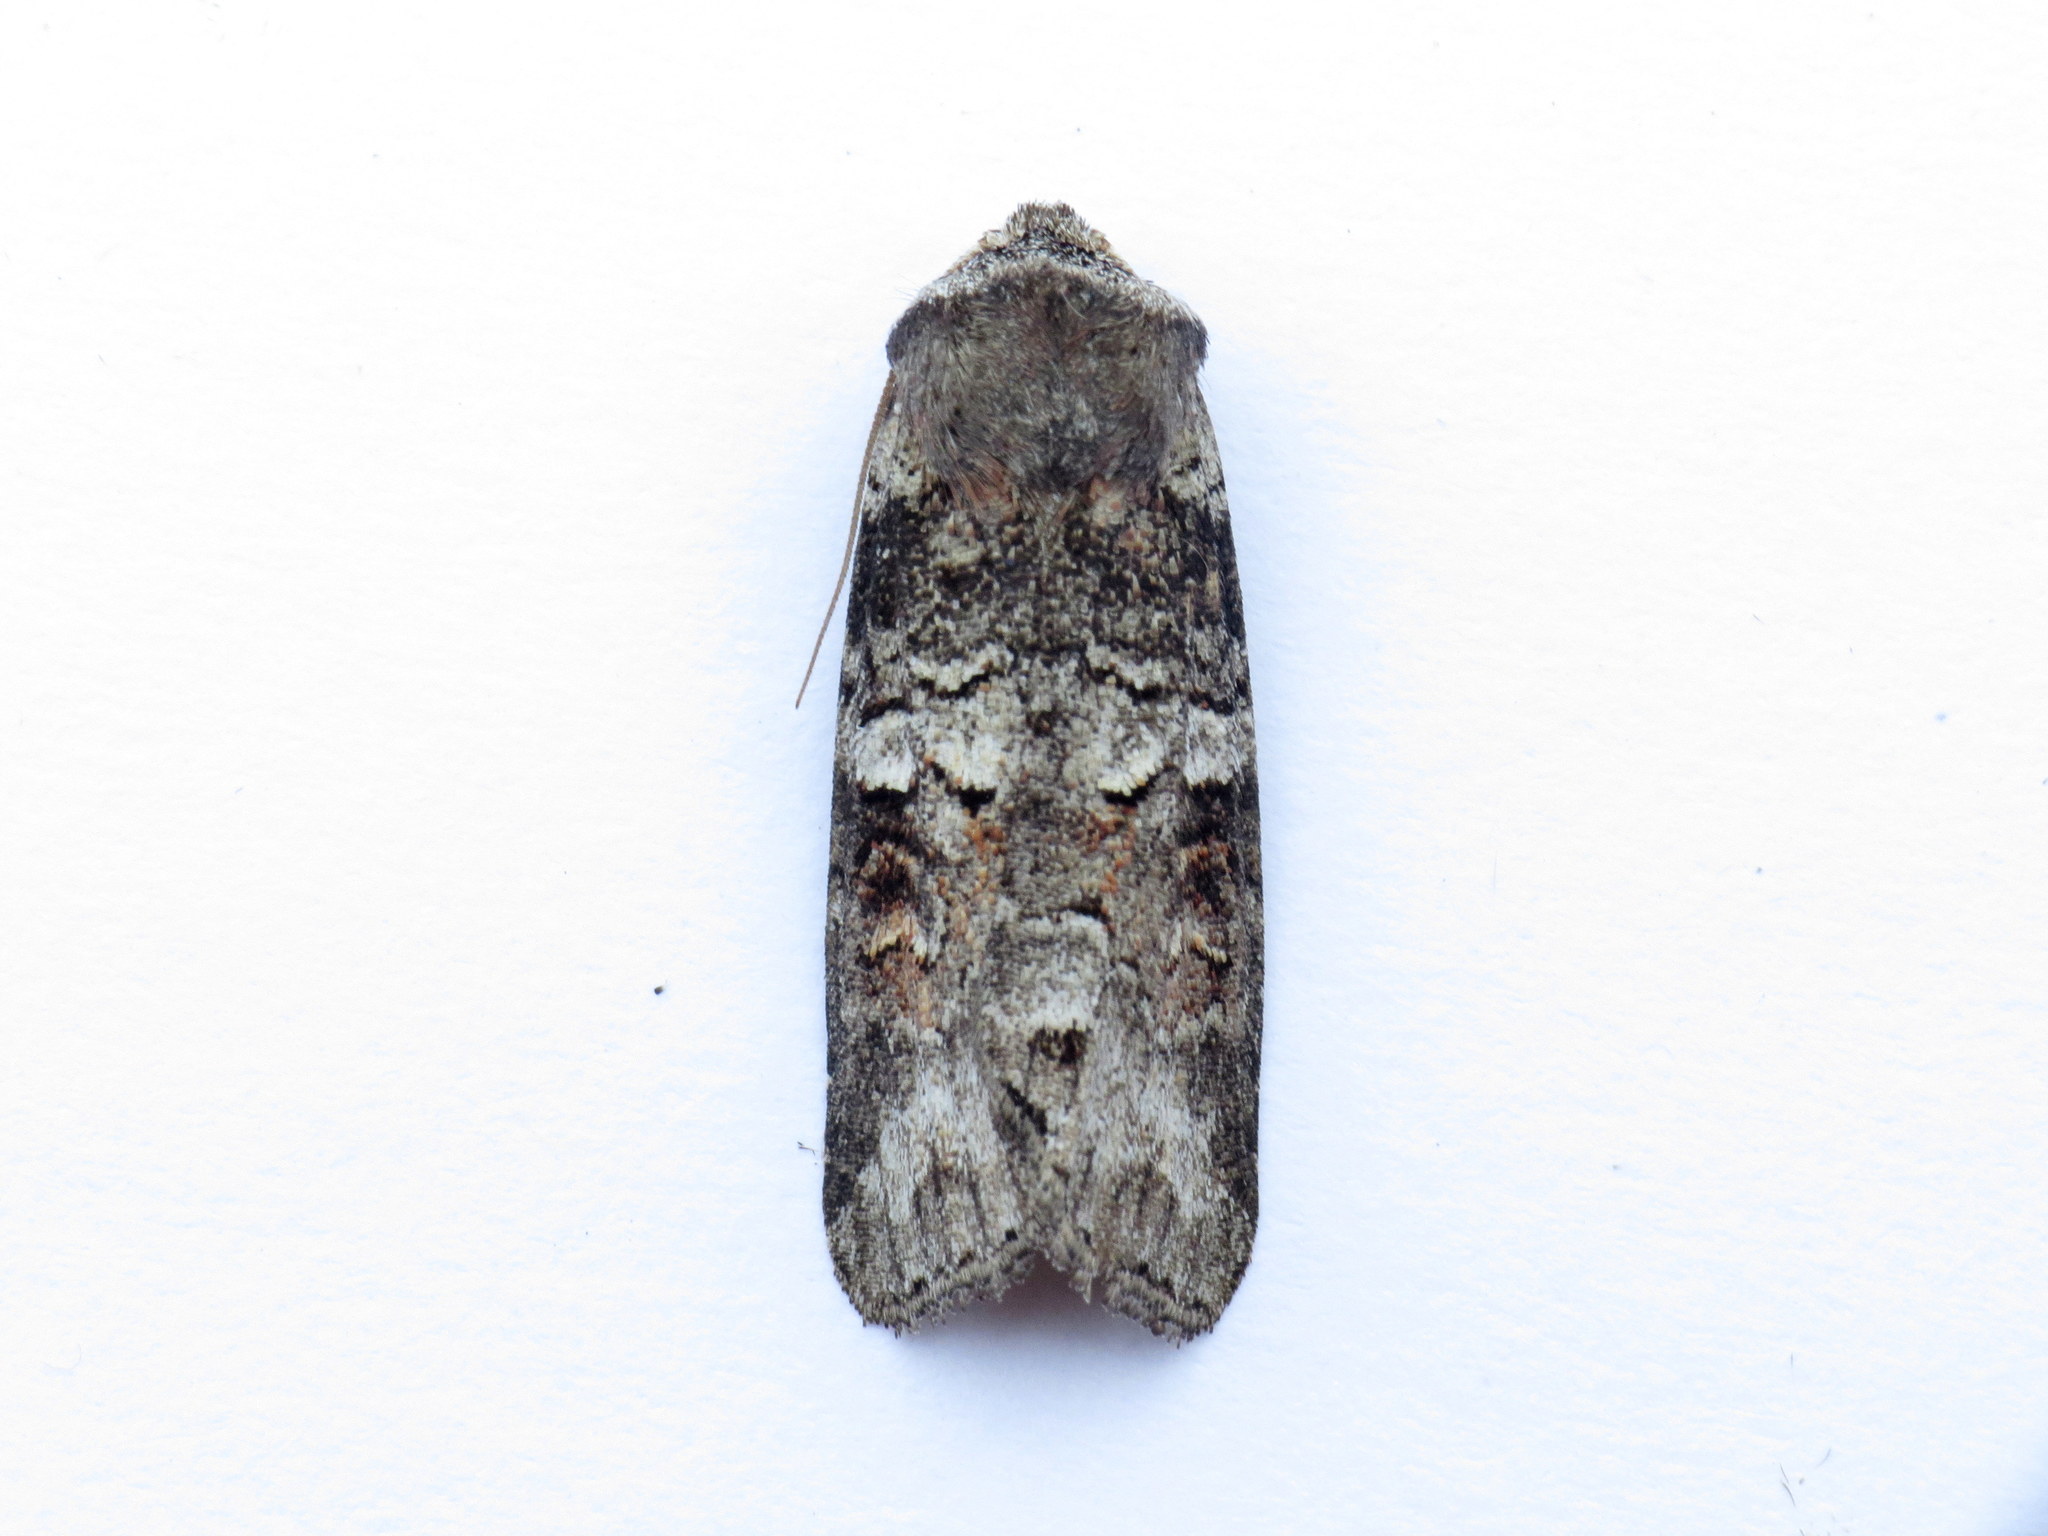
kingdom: Animalia
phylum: Arthropoda
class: Insecta
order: Lepidoptera
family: Noctuidae
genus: Egira
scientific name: Egira alternans
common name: Alternate woodling
